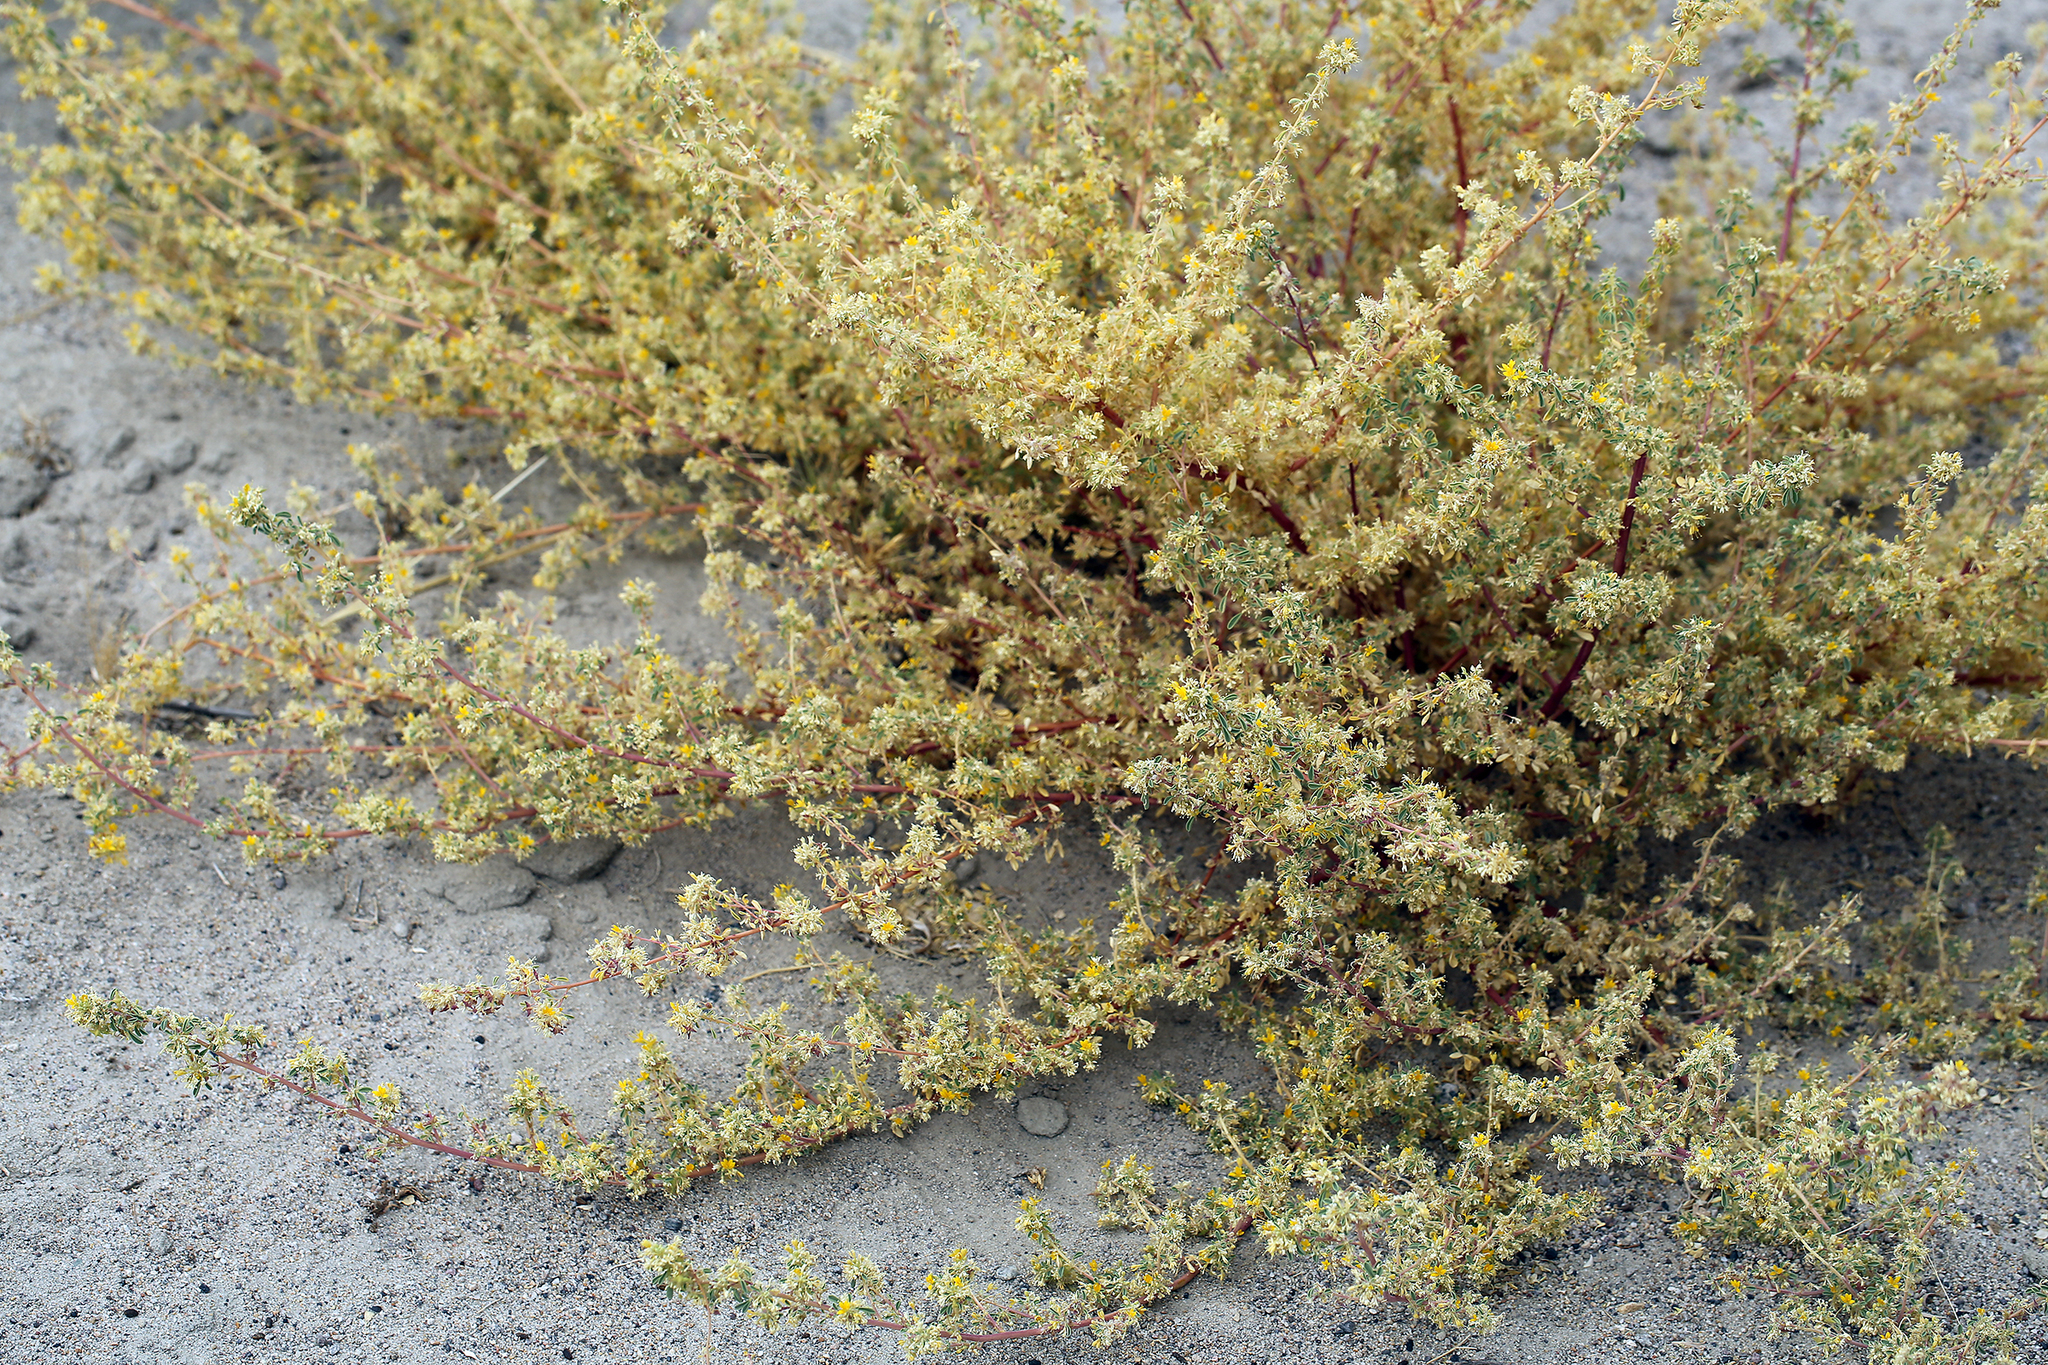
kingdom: Plantae
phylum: Tracheophyta
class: Magnoliopsida
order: Brassicales
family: Cleomaceae
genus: Cleomella
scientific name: Cleomella obtusifolia
